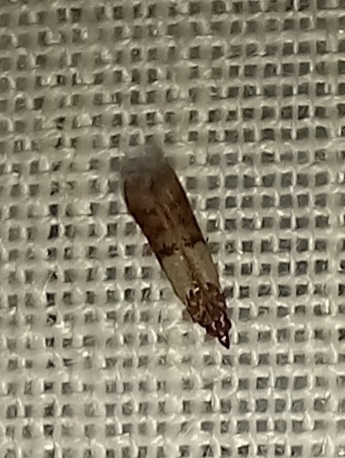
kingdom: Animalia
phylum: Arthropoda
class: Insecta
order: Lepidoptera
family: Pyralidae
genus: Plodia
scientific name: Plodia interpunctella
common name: Indian meal moth
